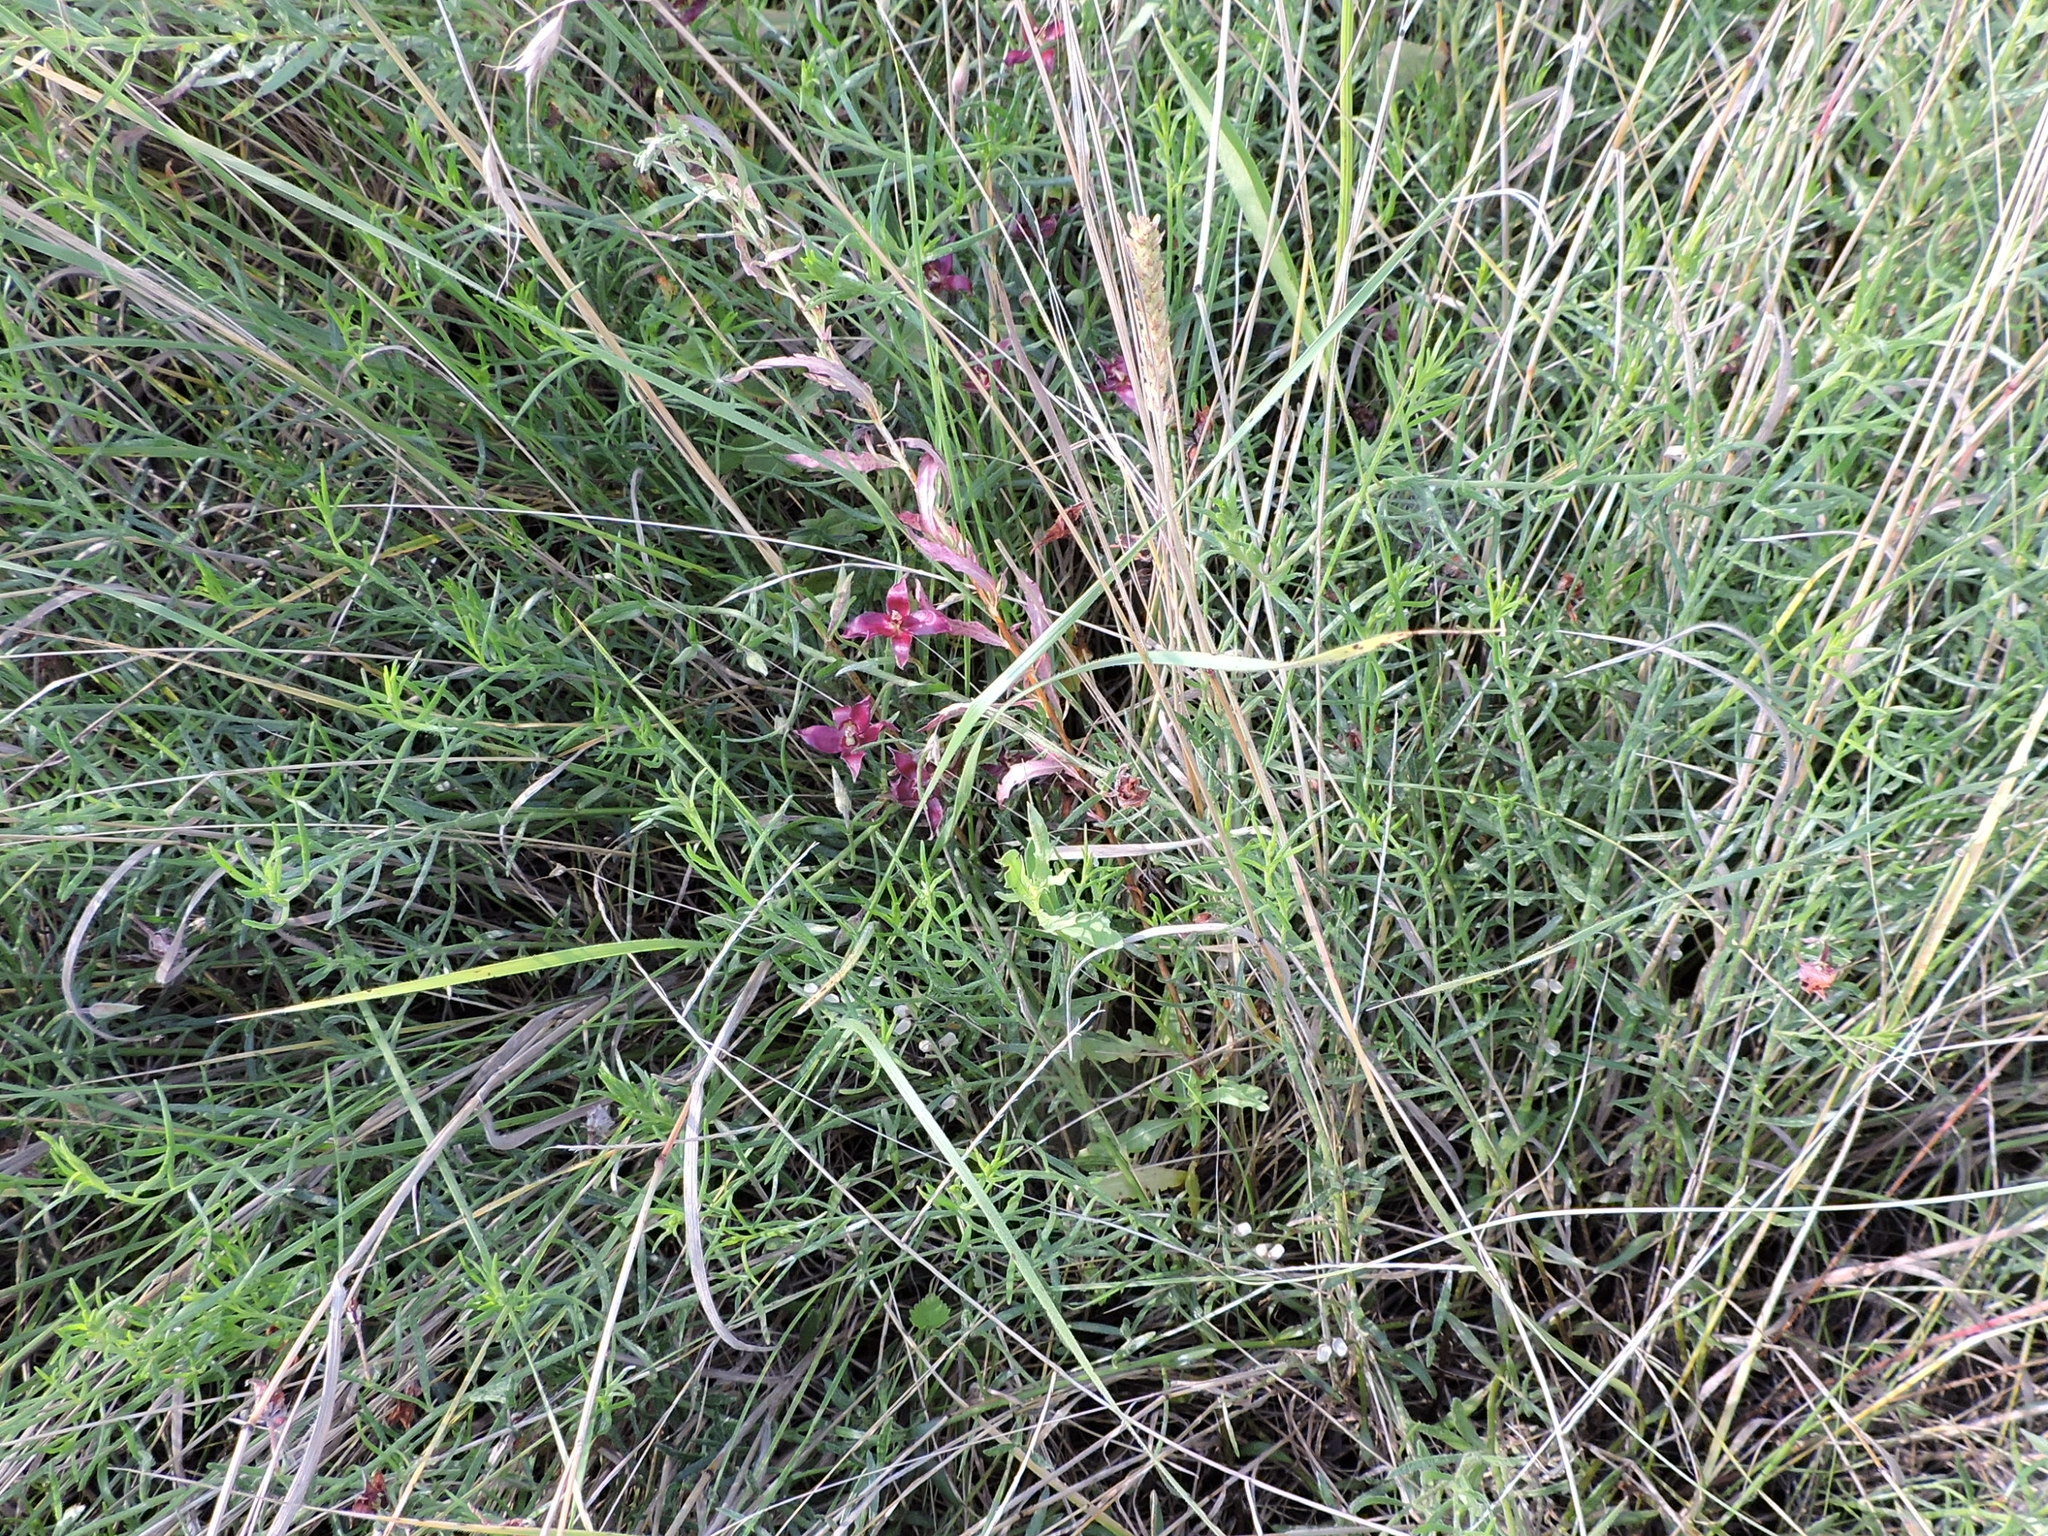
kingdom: Plantae
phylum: Tracheophyta
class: Magnoliopsida
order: Zygophyllales
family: Krameriaceae
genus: Krameria
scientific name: Krameria lanceolata
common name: Ratany
